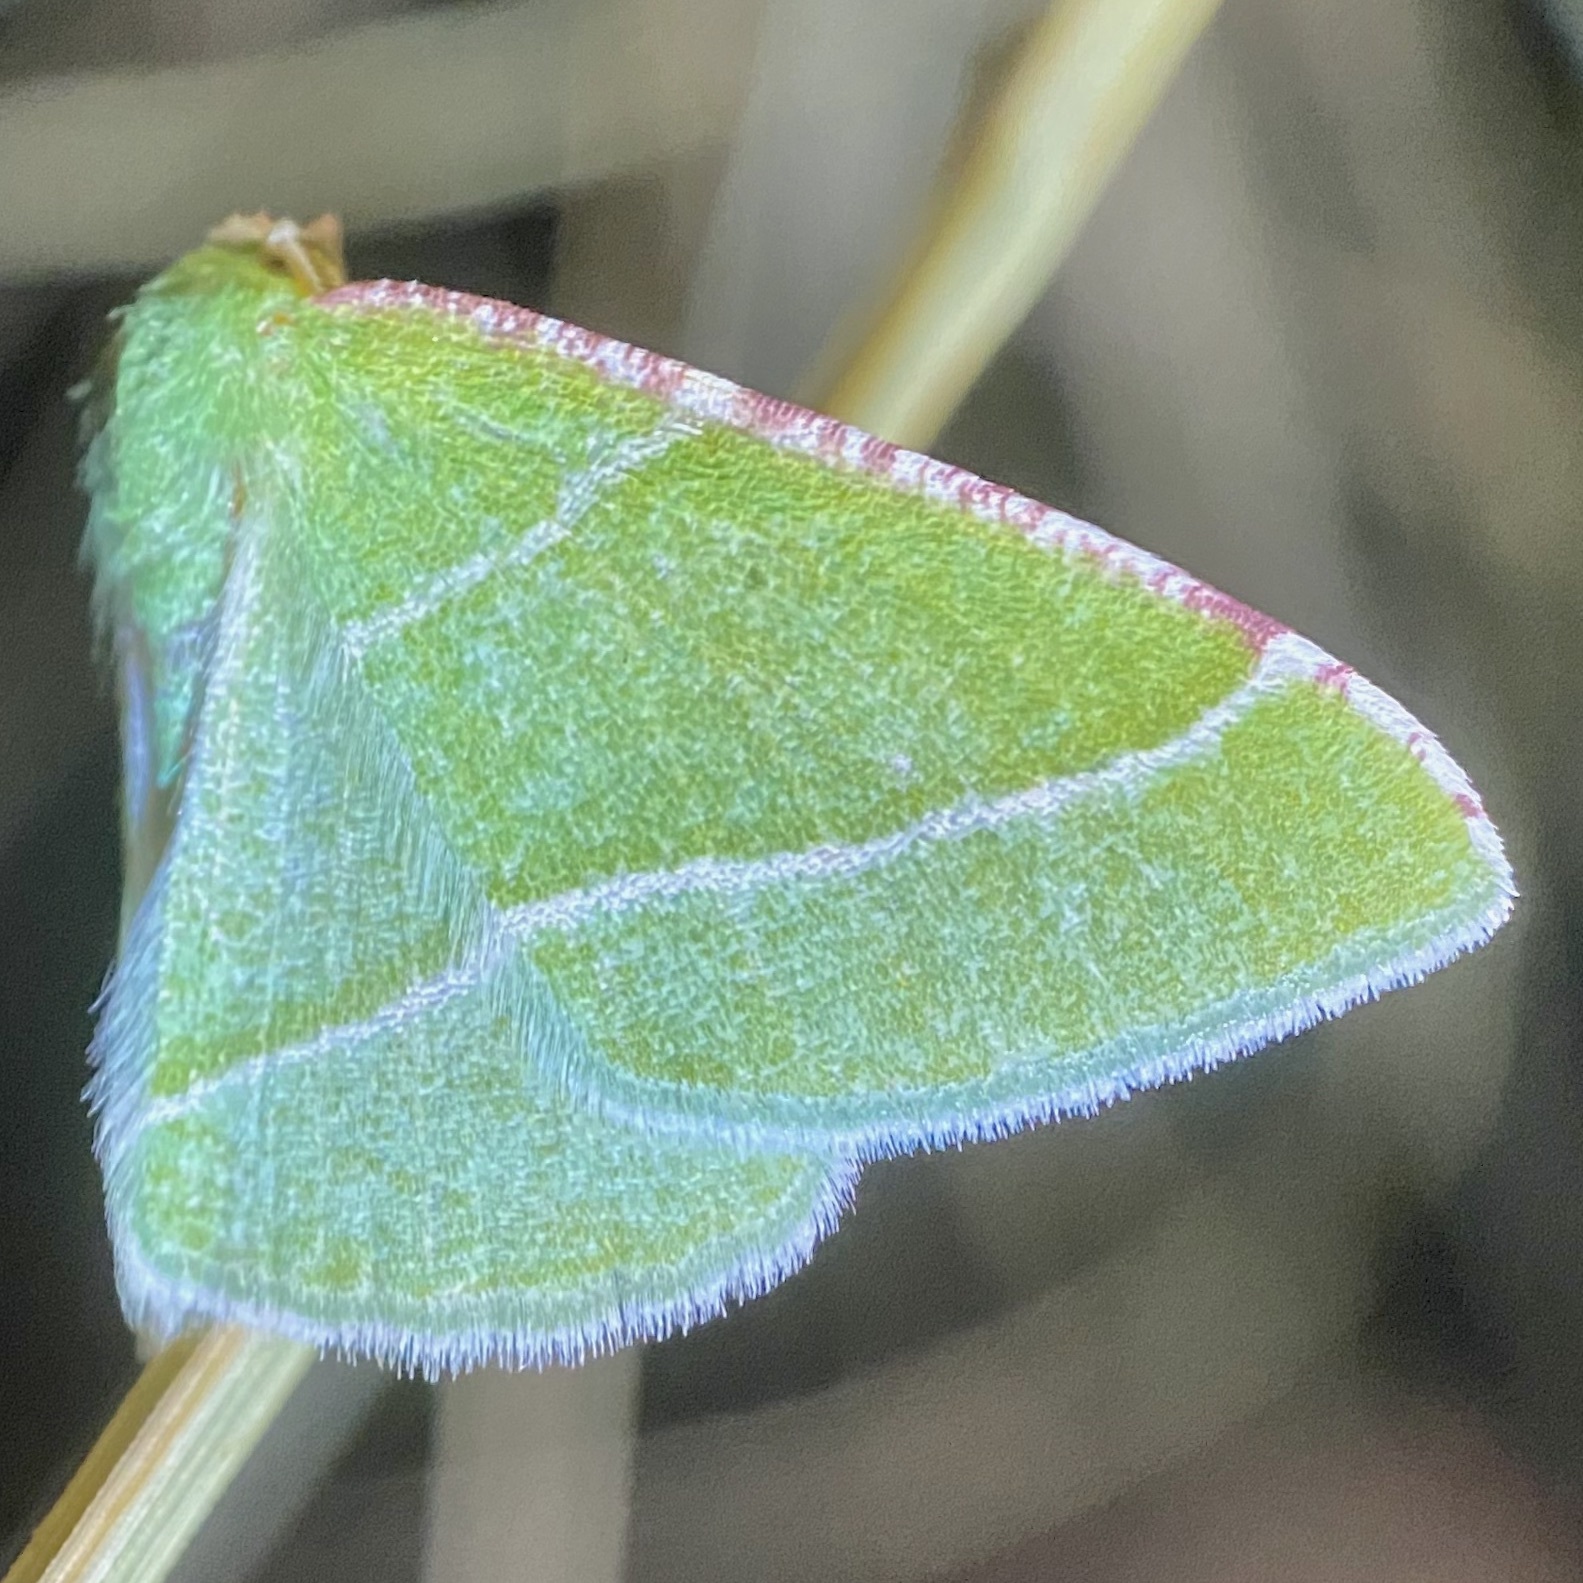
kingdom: Animalia
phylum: Arthropoda
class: Insecta
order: Lepidoptera
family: Geometridae
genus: Dichordophora
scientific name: Dichordophora phoenix
